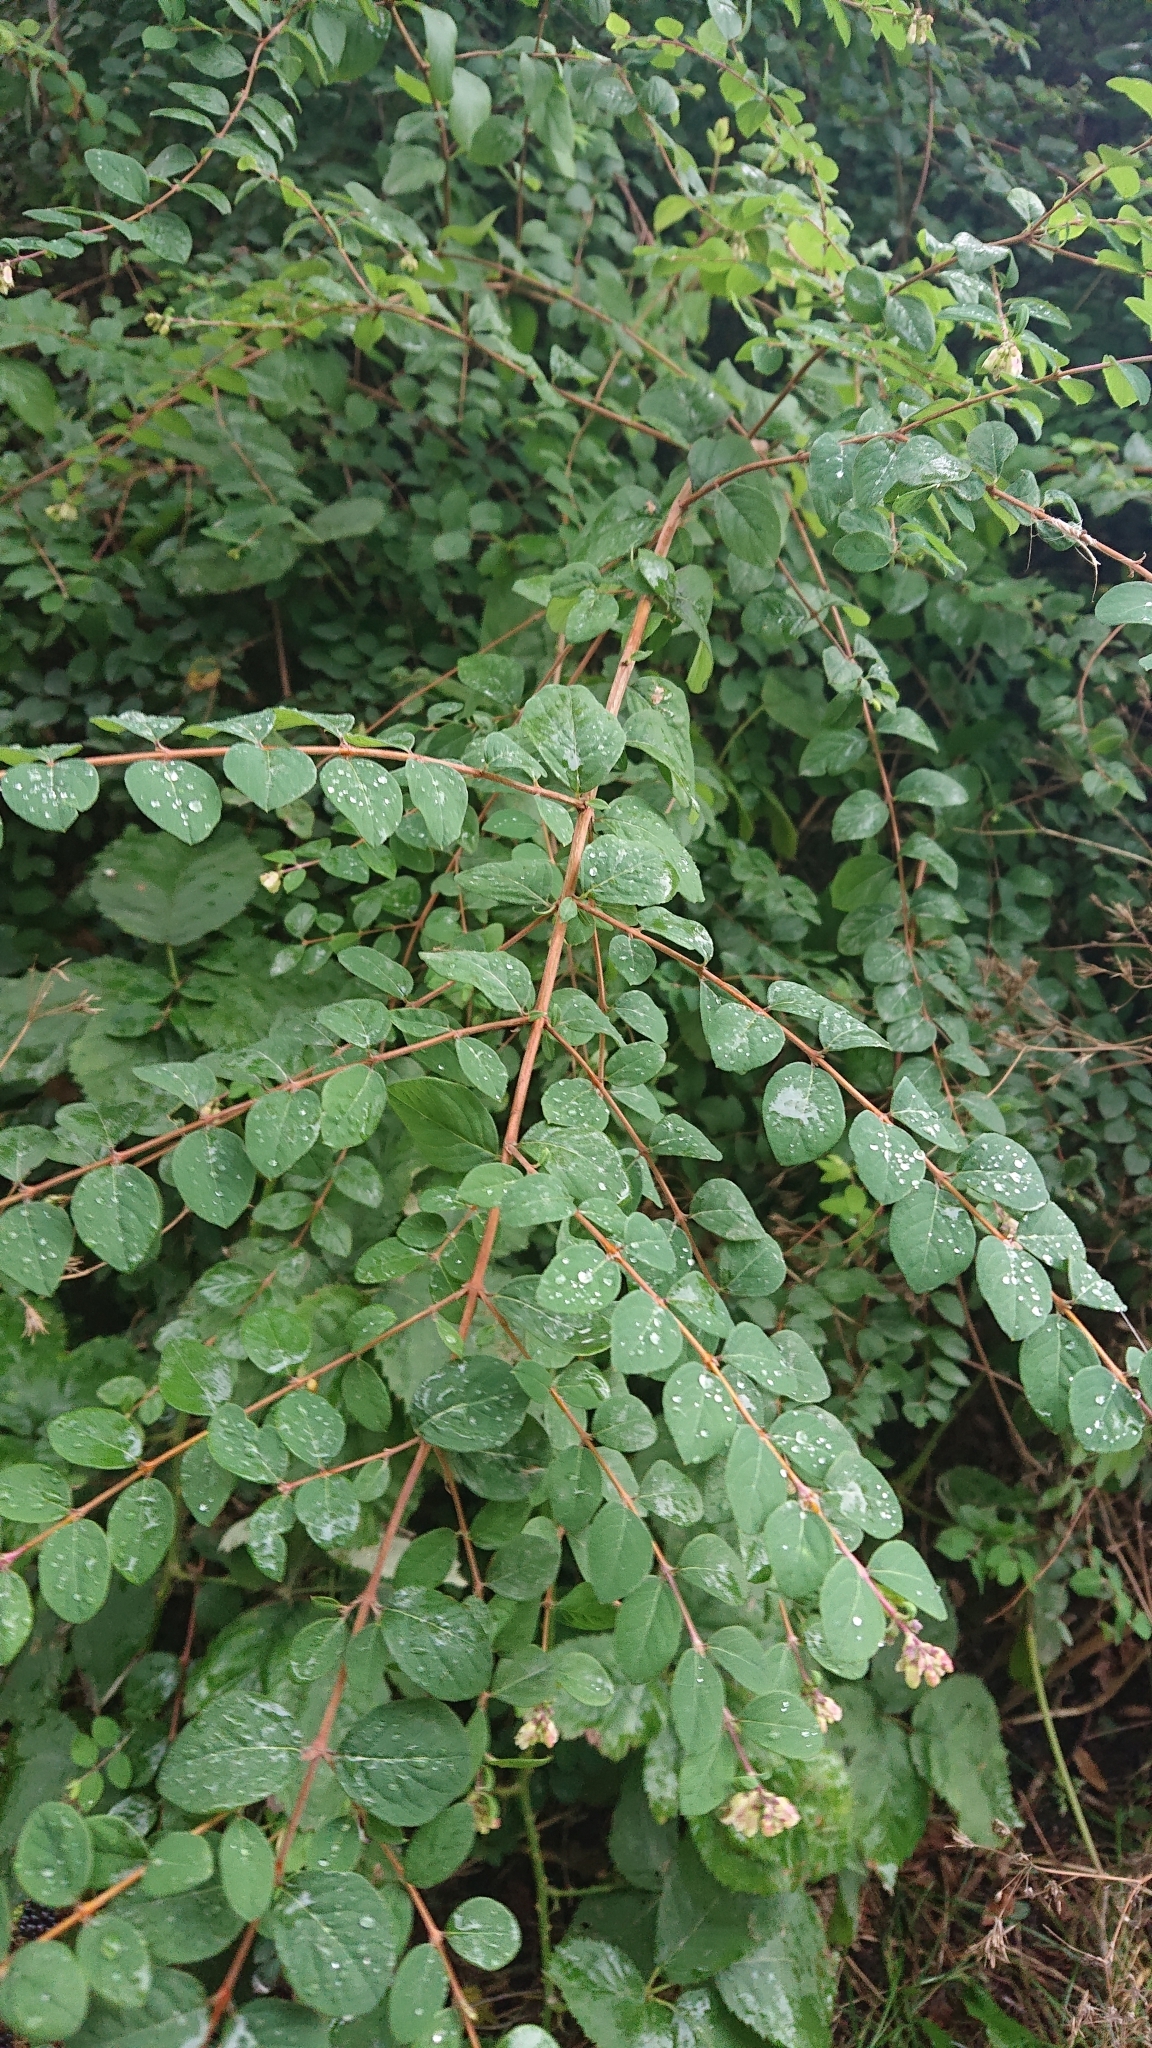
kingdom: Plantae
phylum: Tracheophyta
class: Magnoliopsida
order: Dipsacales
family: Caprifoliaceae
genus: Symphoricarpos
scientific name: Symphoricarpos albus
